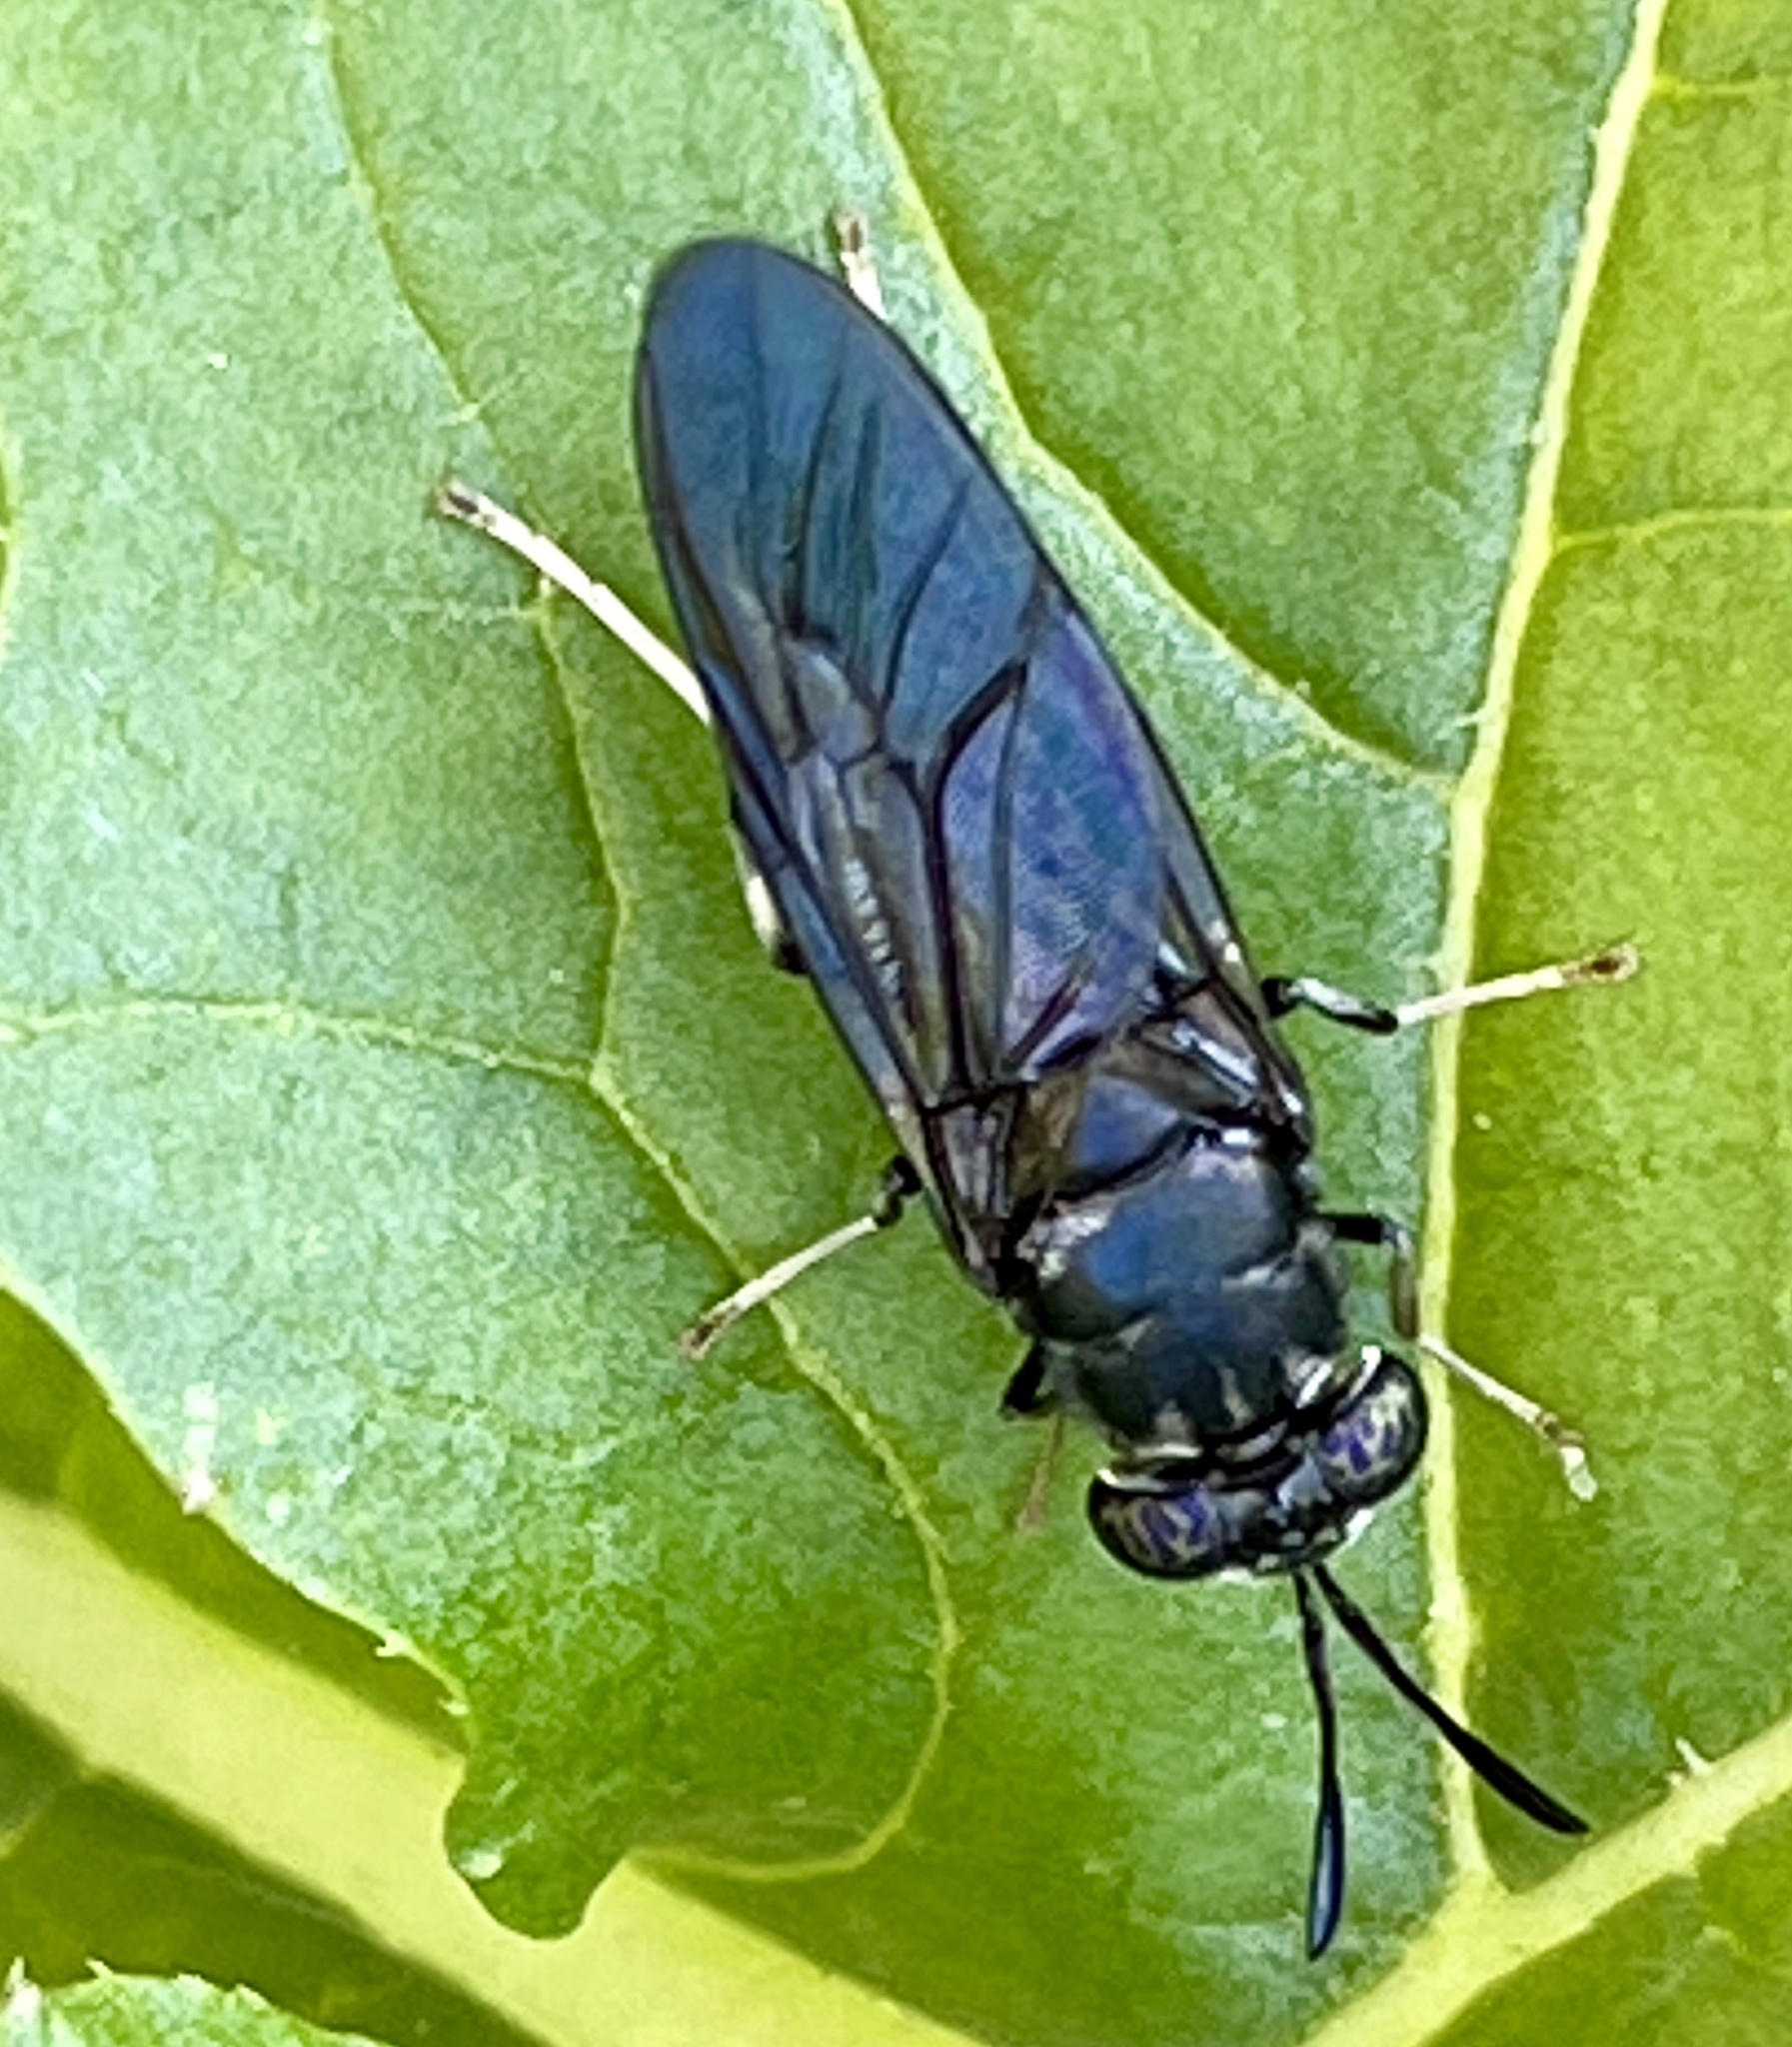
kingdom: Animalia
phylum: Arthropoda
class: Insecta
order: Diptera
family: Stratiomyidae
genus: Hermetia
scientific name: Hermetia illucens
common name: Black soldier fly
